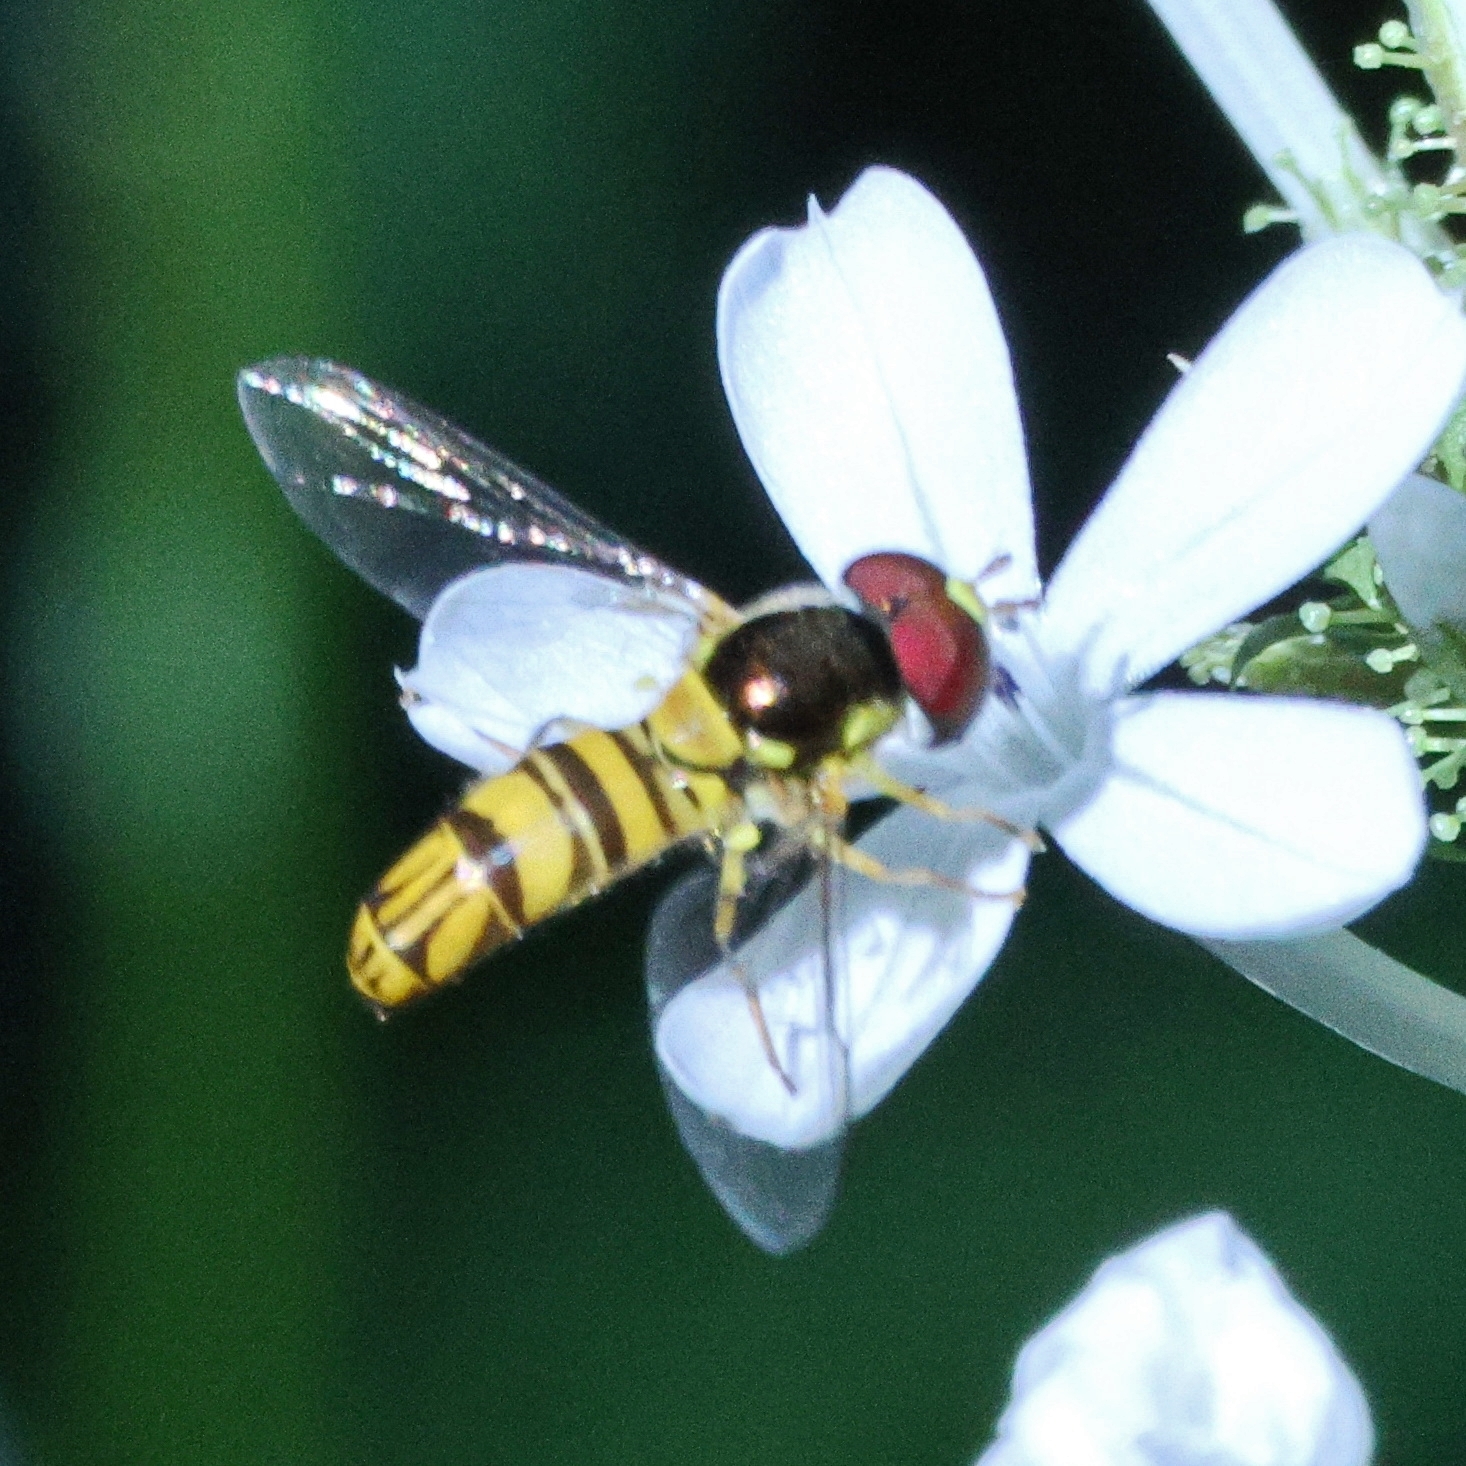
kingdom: Animalia
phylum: Arthropoda
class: Insecta
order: Diptera
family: Syrphidae
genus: Allograpta
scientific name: Allograpta obliqua
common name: Common oblique syrphid
